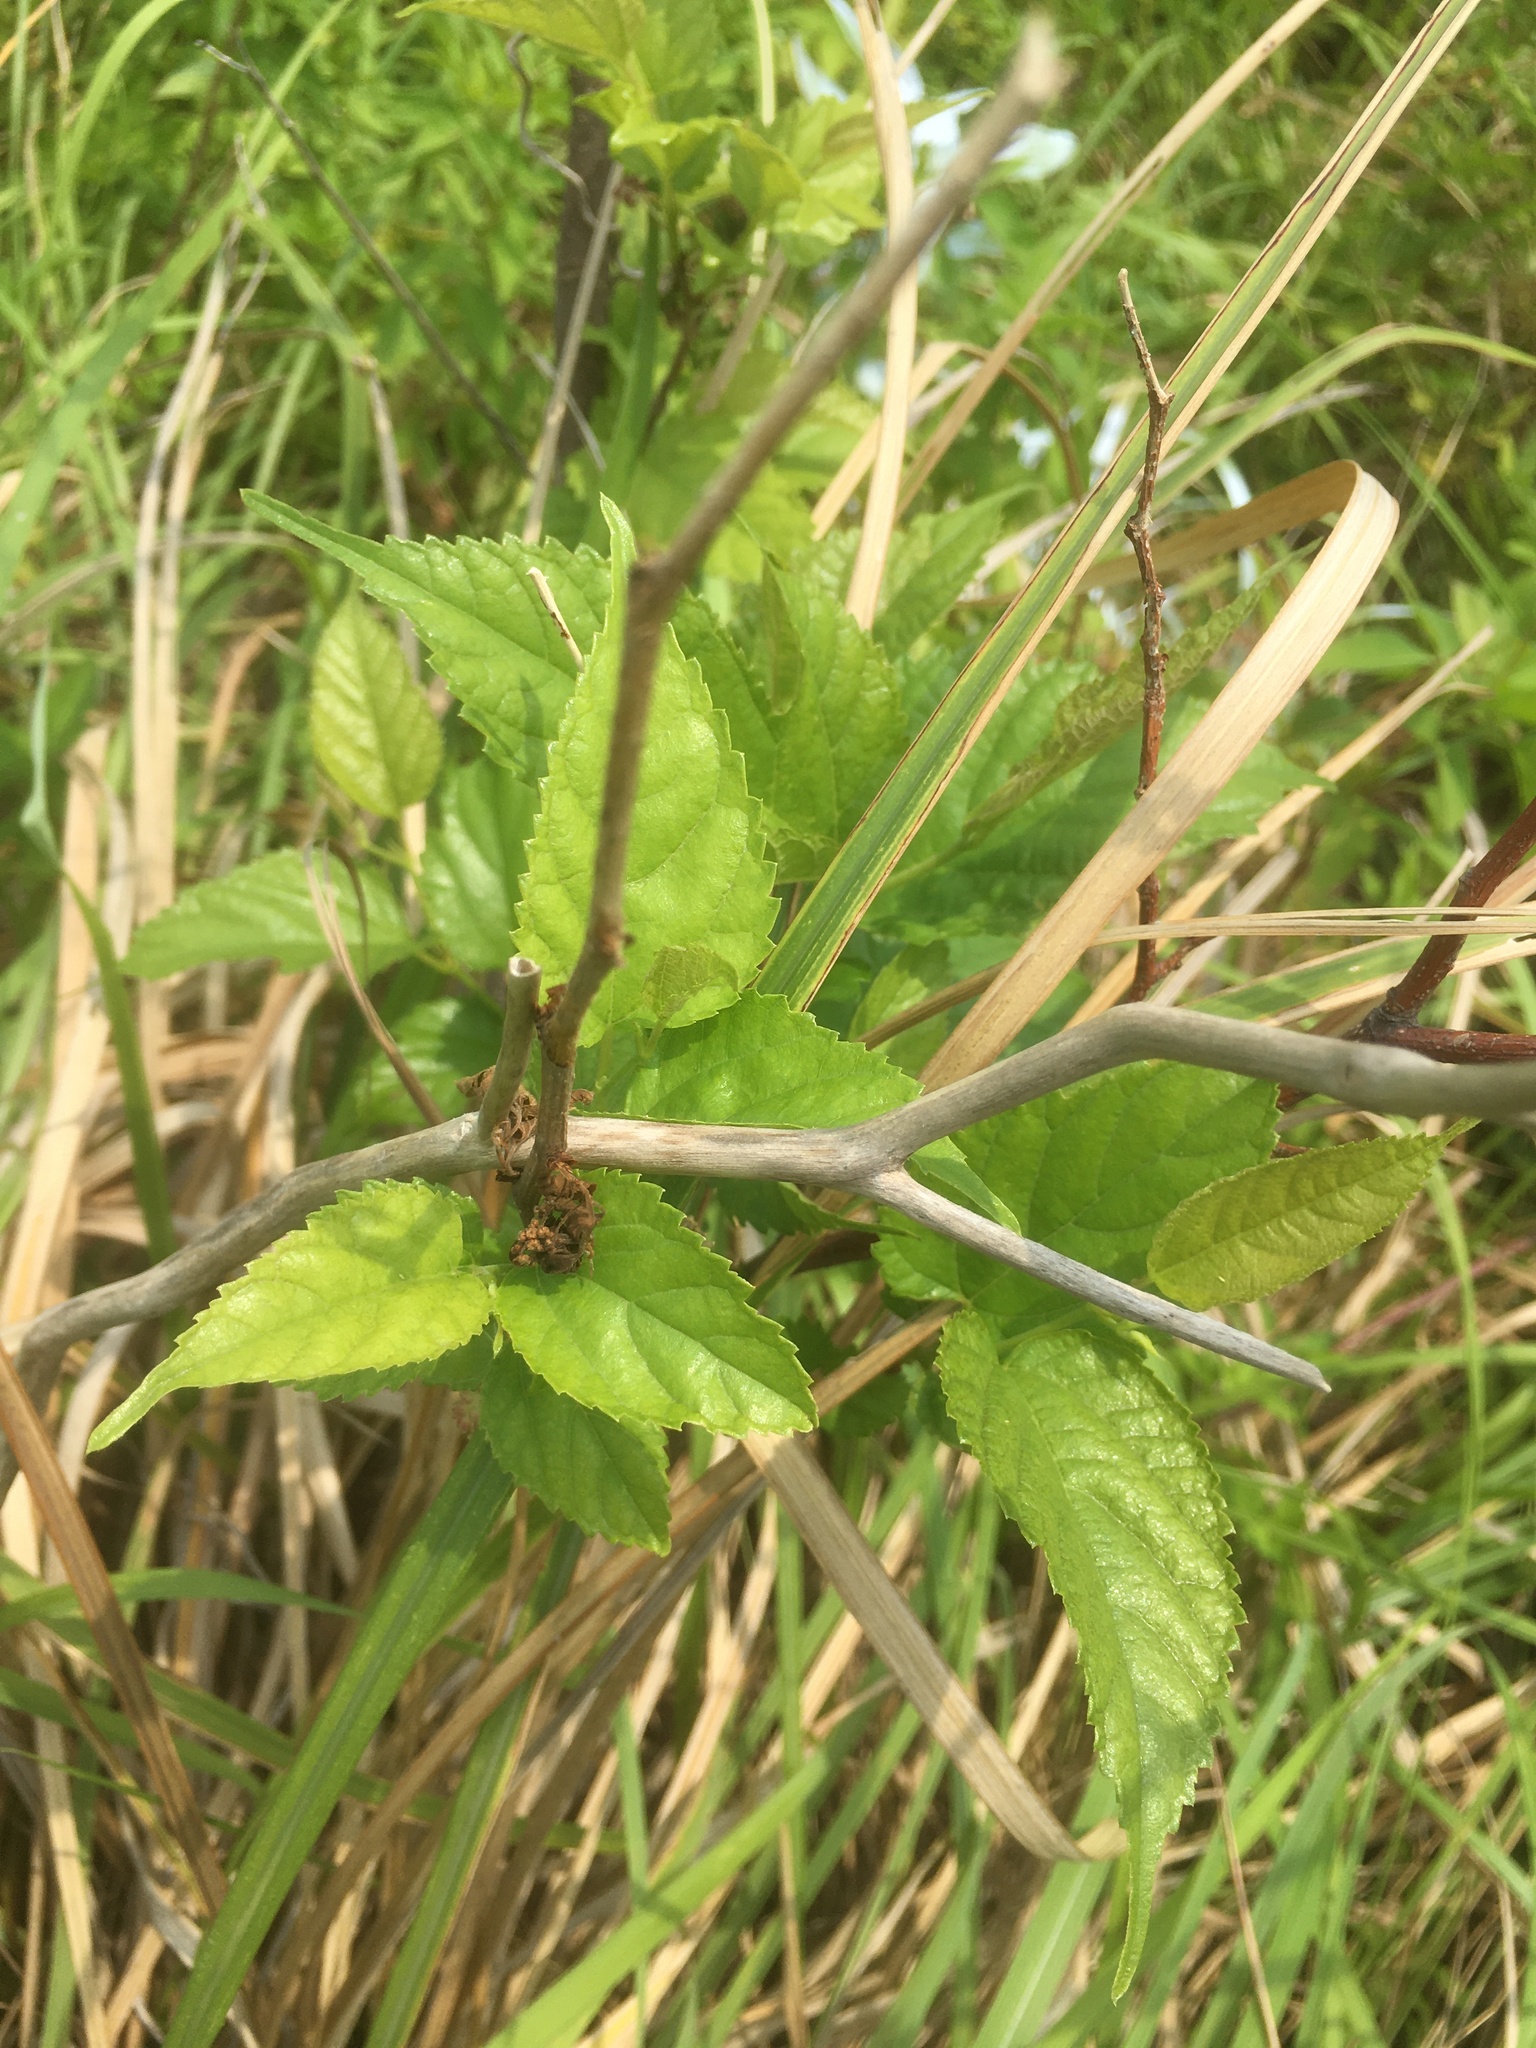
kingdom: Plantae
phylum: Tracheophyta
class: Magnoliopsida
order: Rosales
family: Moraceae
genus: Morus
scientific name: Morus indica
